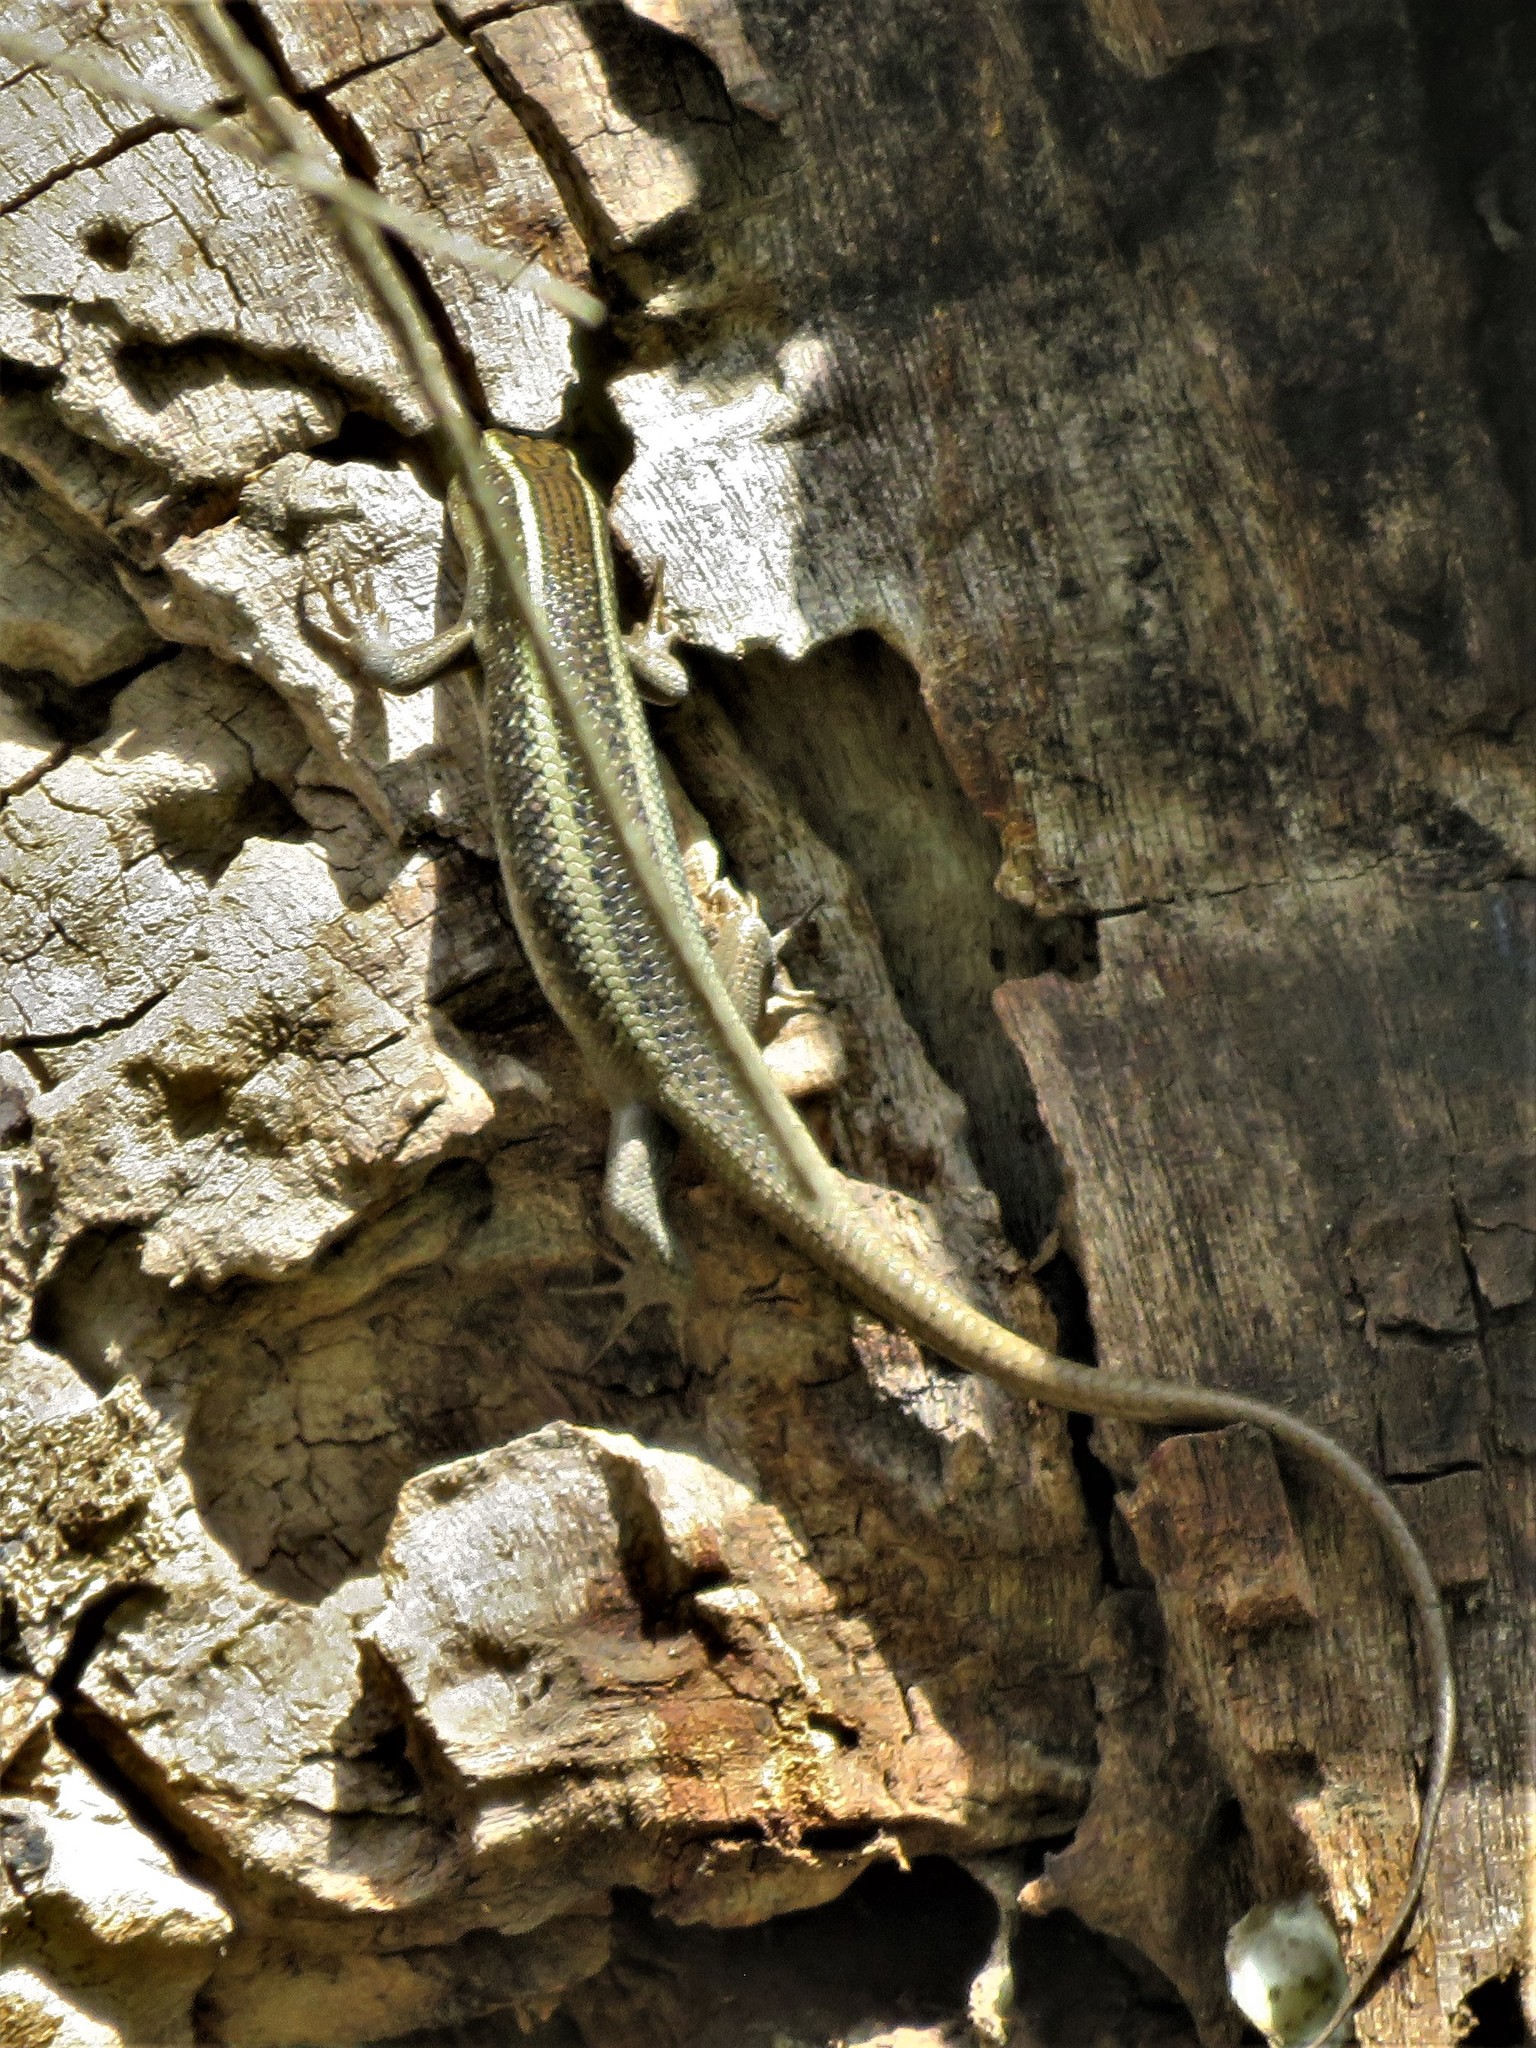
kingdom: Animalia
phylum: Chordata
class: Squamata
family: Scincidae
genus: Trachylepis
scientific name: Trachylepis striata
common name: African striped mabuya
